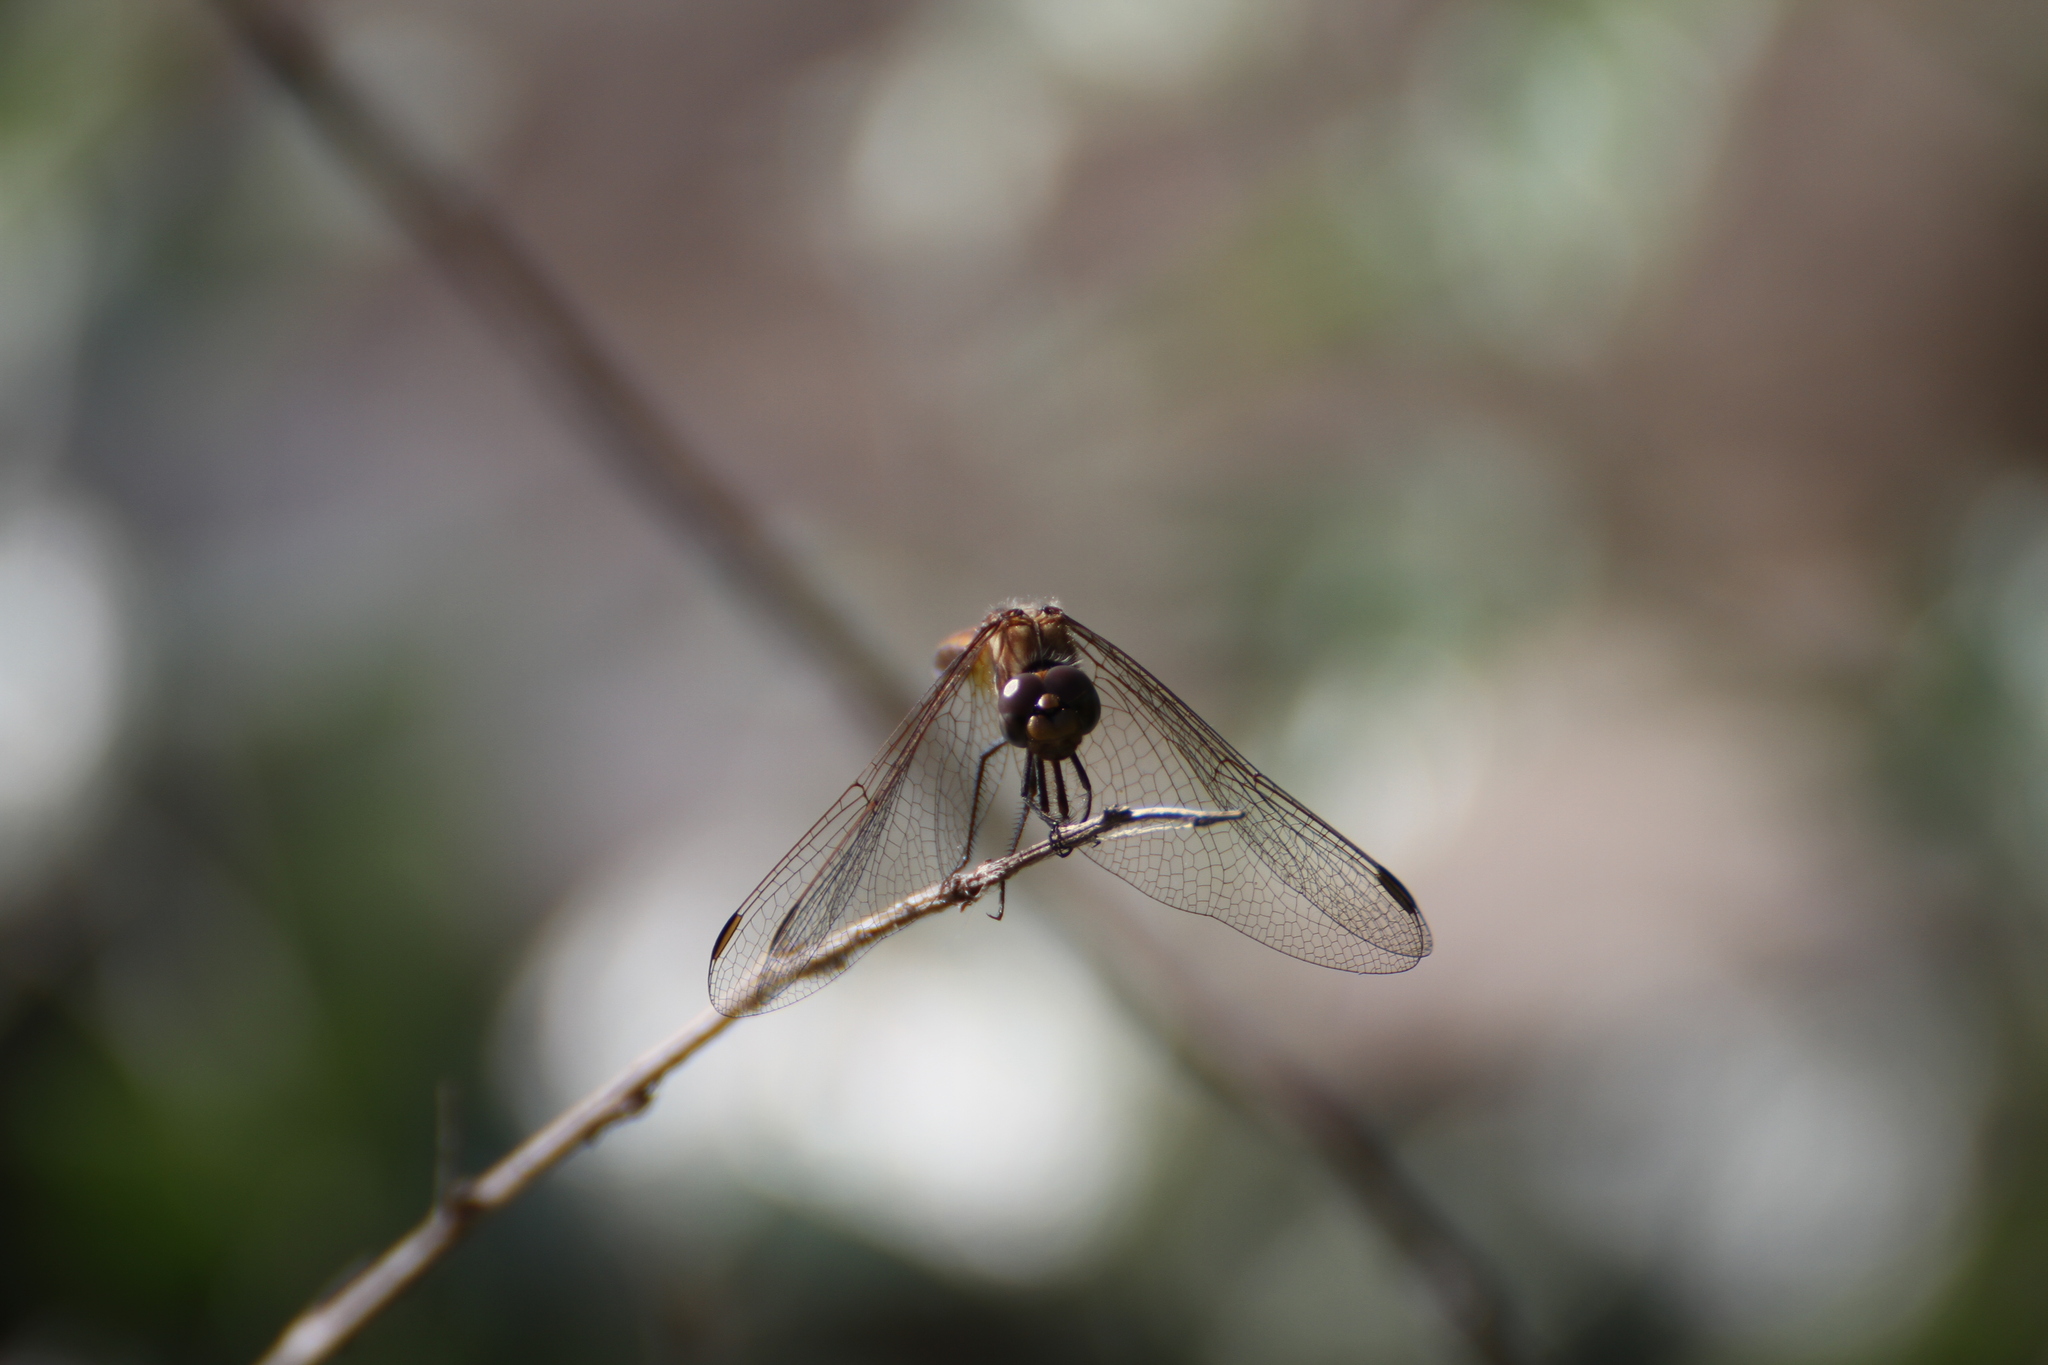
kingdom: Animalia
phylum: Arthropoda
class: Insecta
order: Odonata
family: Libellulidae
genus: Trithemis
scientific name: Trithemis annulata
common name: Violet dropwing
